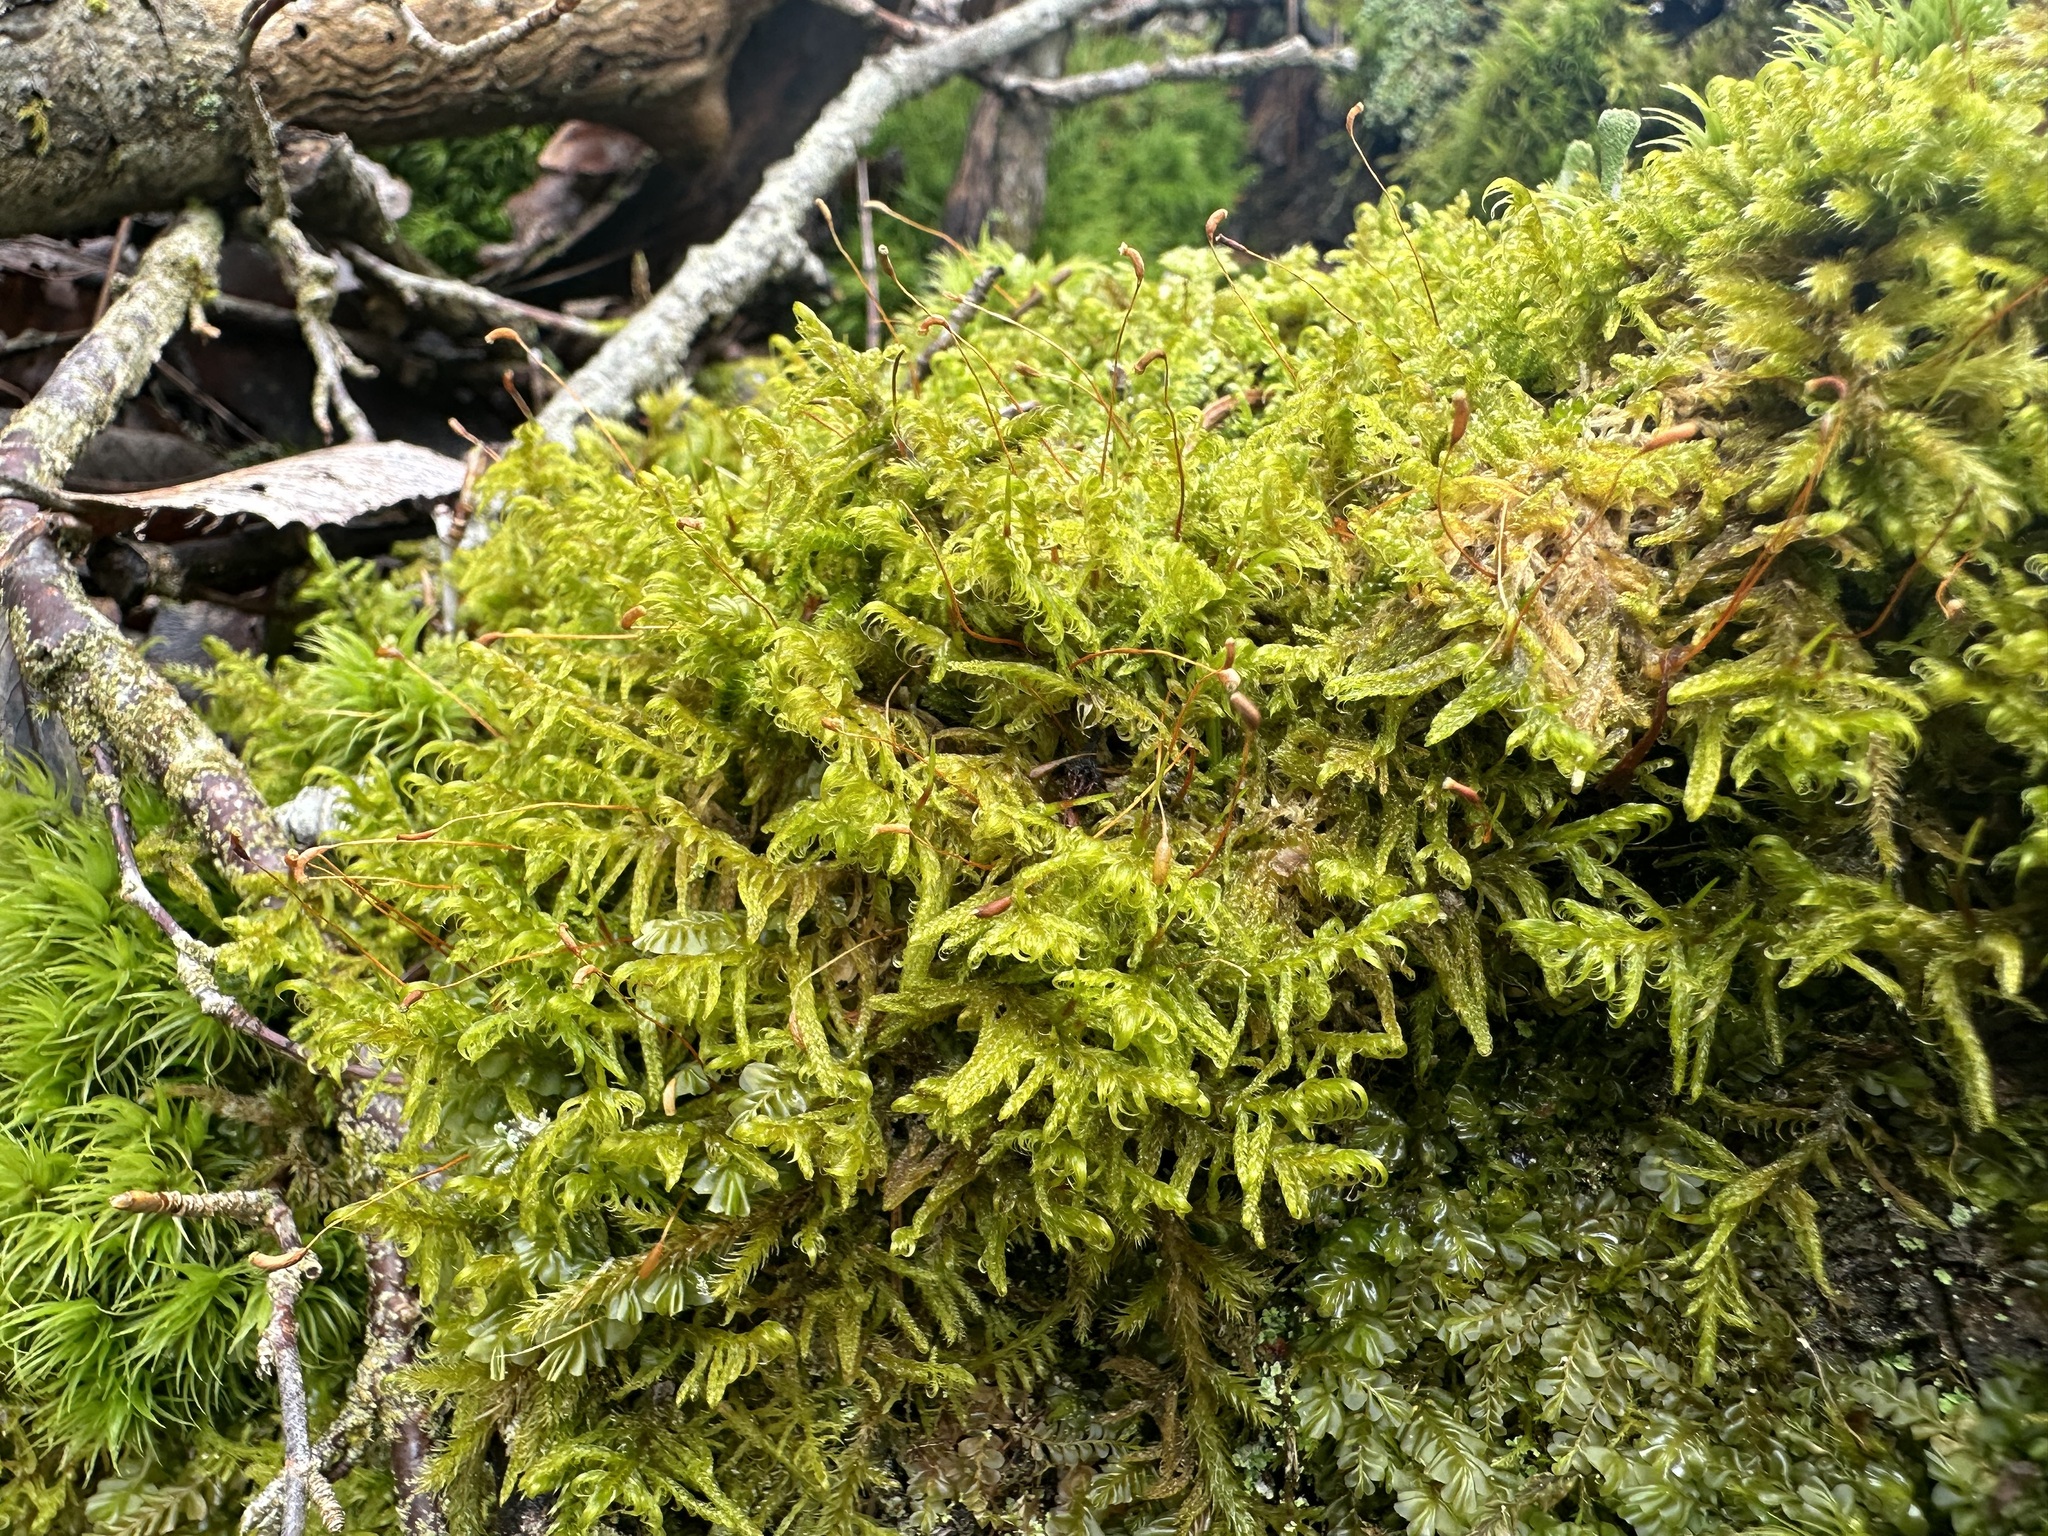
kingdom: Plantae
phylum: Bryophyta
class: Bryopsida
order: Hypnales
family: Scorpidiaceae
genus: Sanionia
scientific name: Sanionia uncinata
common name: Sickle moss
